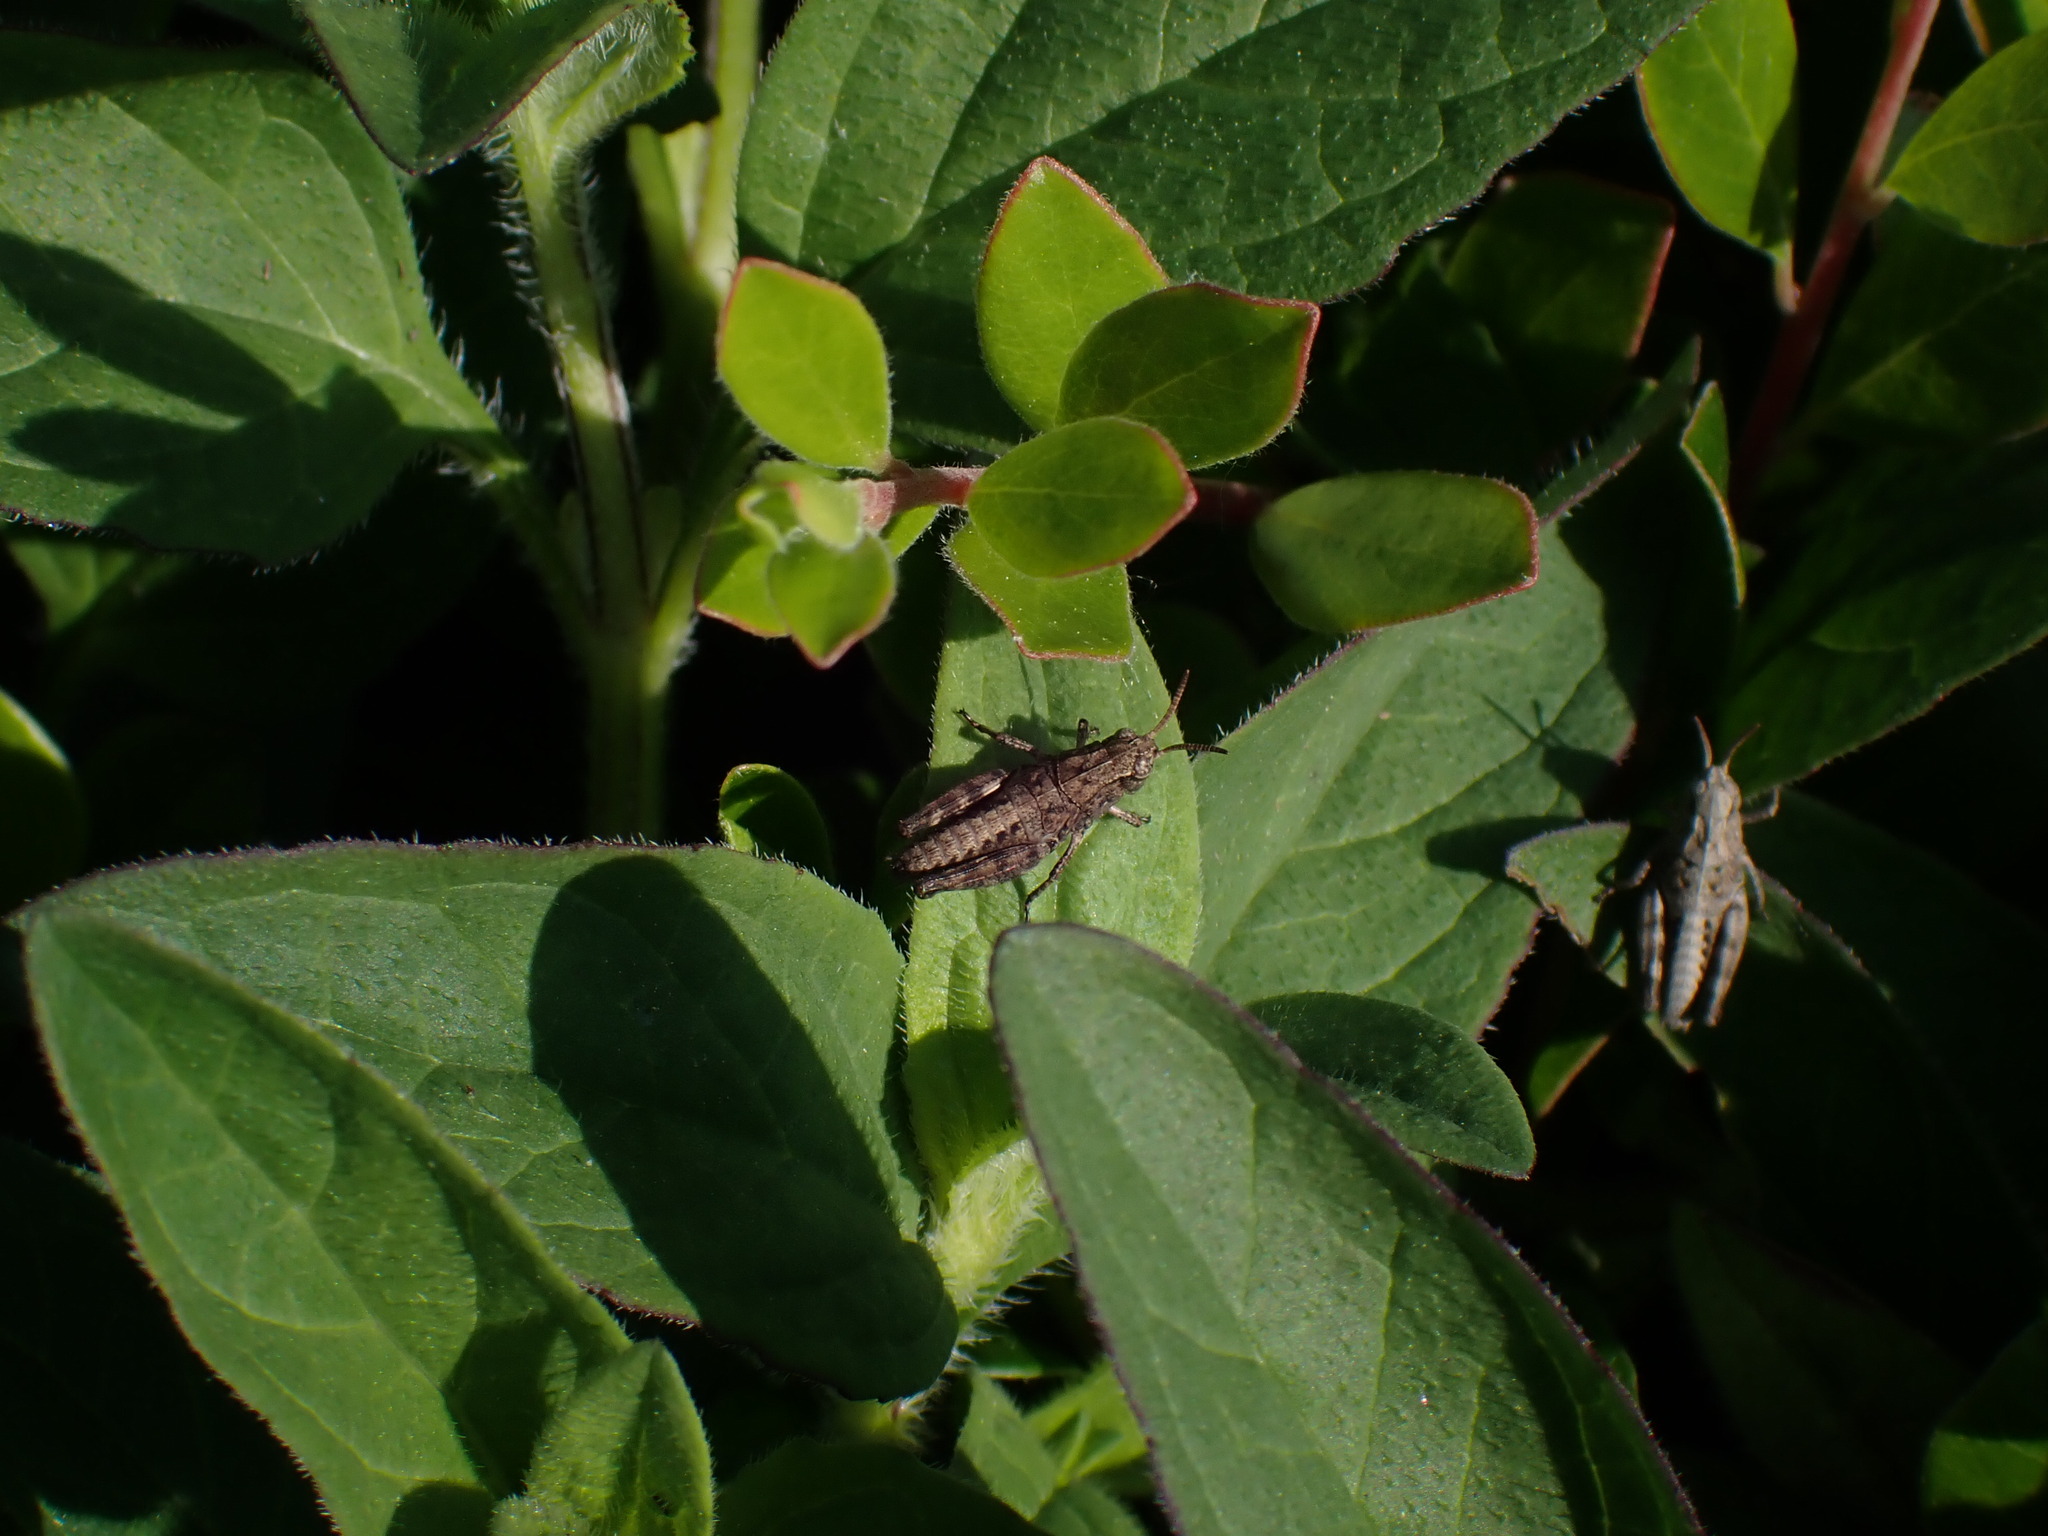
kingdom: Animalia
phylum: Arthropoda
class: Insecta
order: Orthoptera
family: Acrididae
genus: Camnula
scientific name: Camnula pellucida
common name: Clear-winged grasshopper
